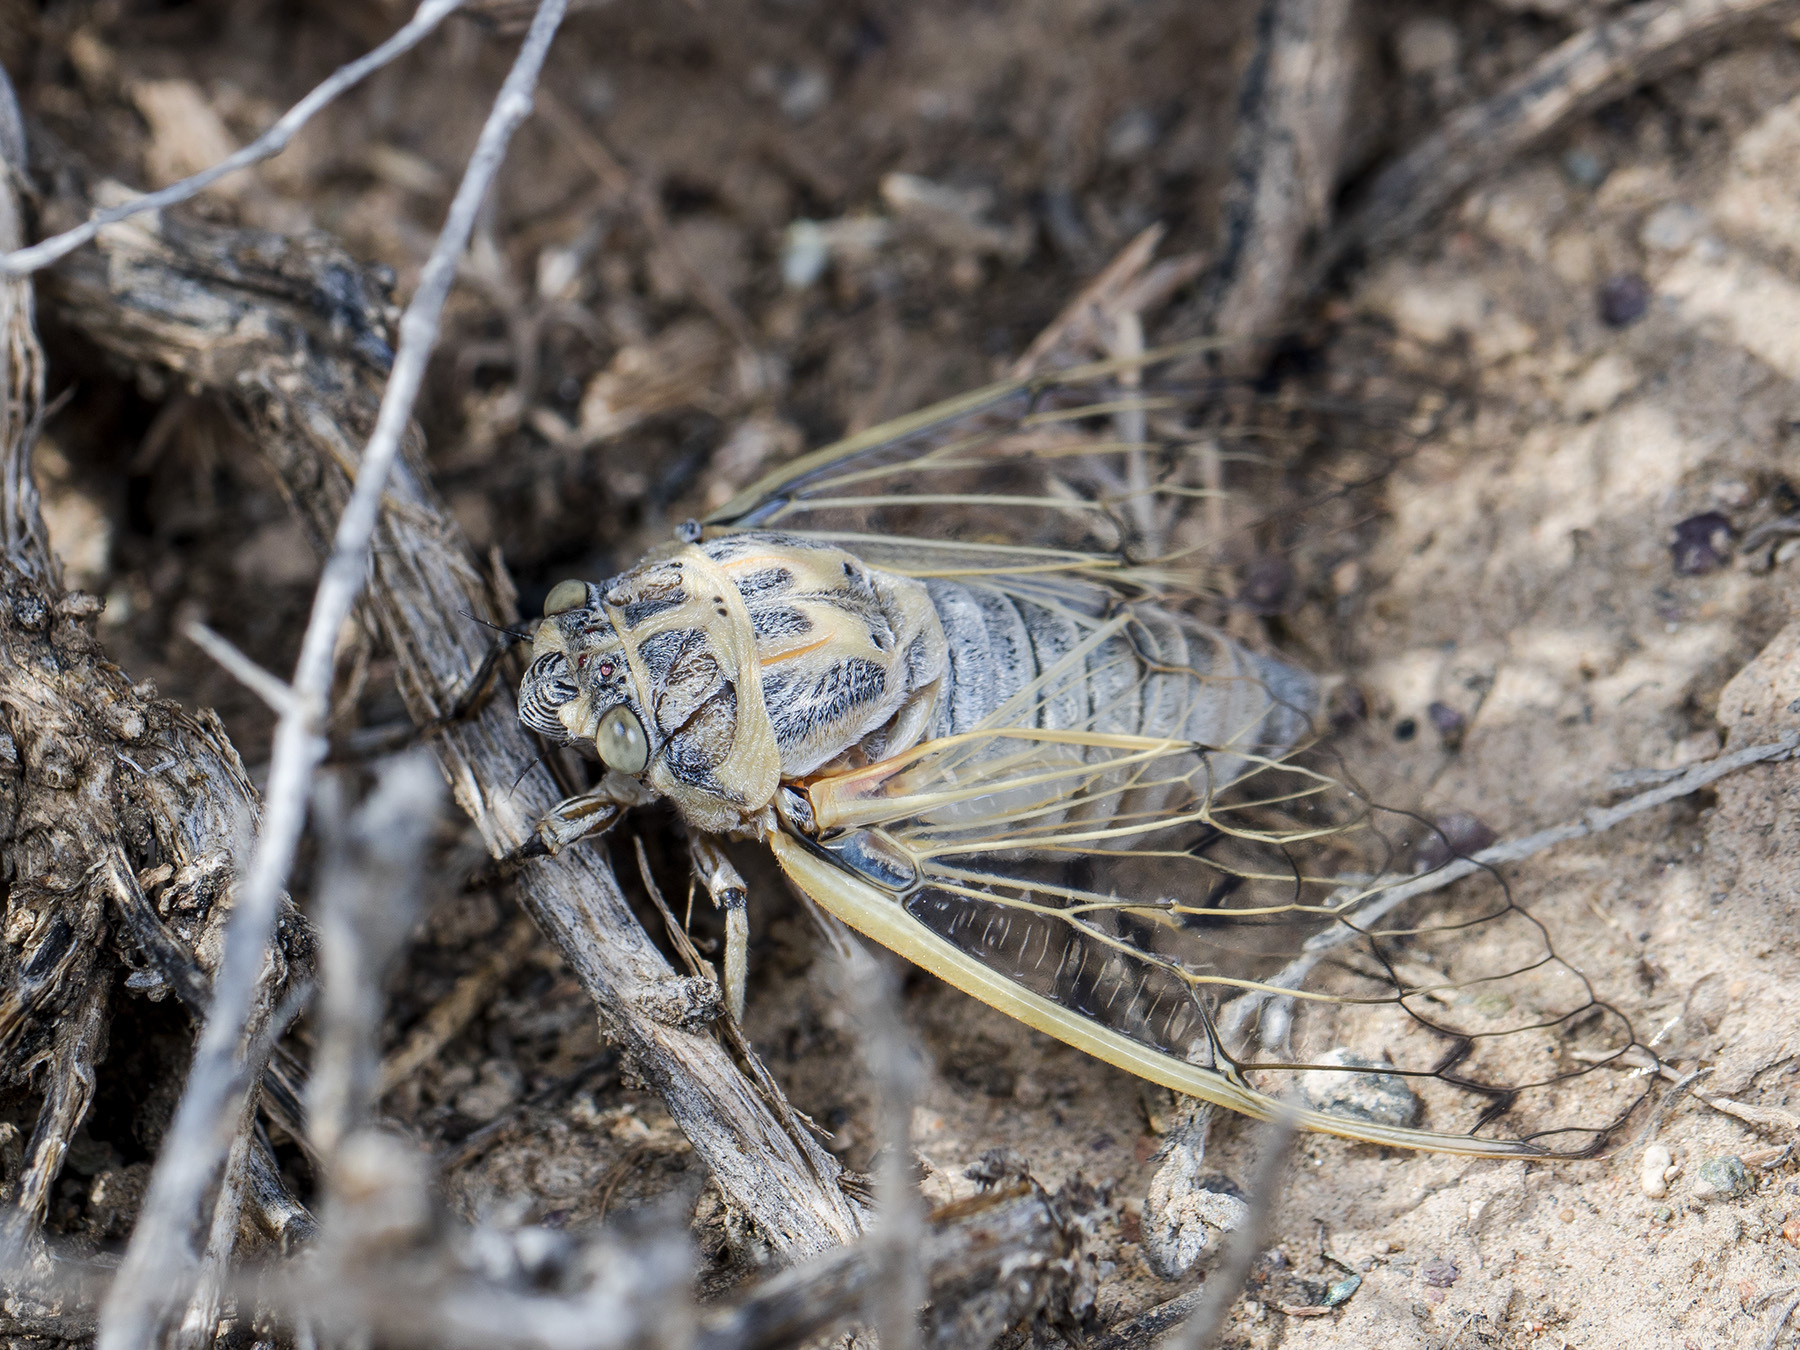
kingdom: Animalia
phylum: Arthropoda
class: Insecta
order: Hemiptera
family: Cicadidae
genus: Psalmocharias
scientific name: Psalmocharias querulus
